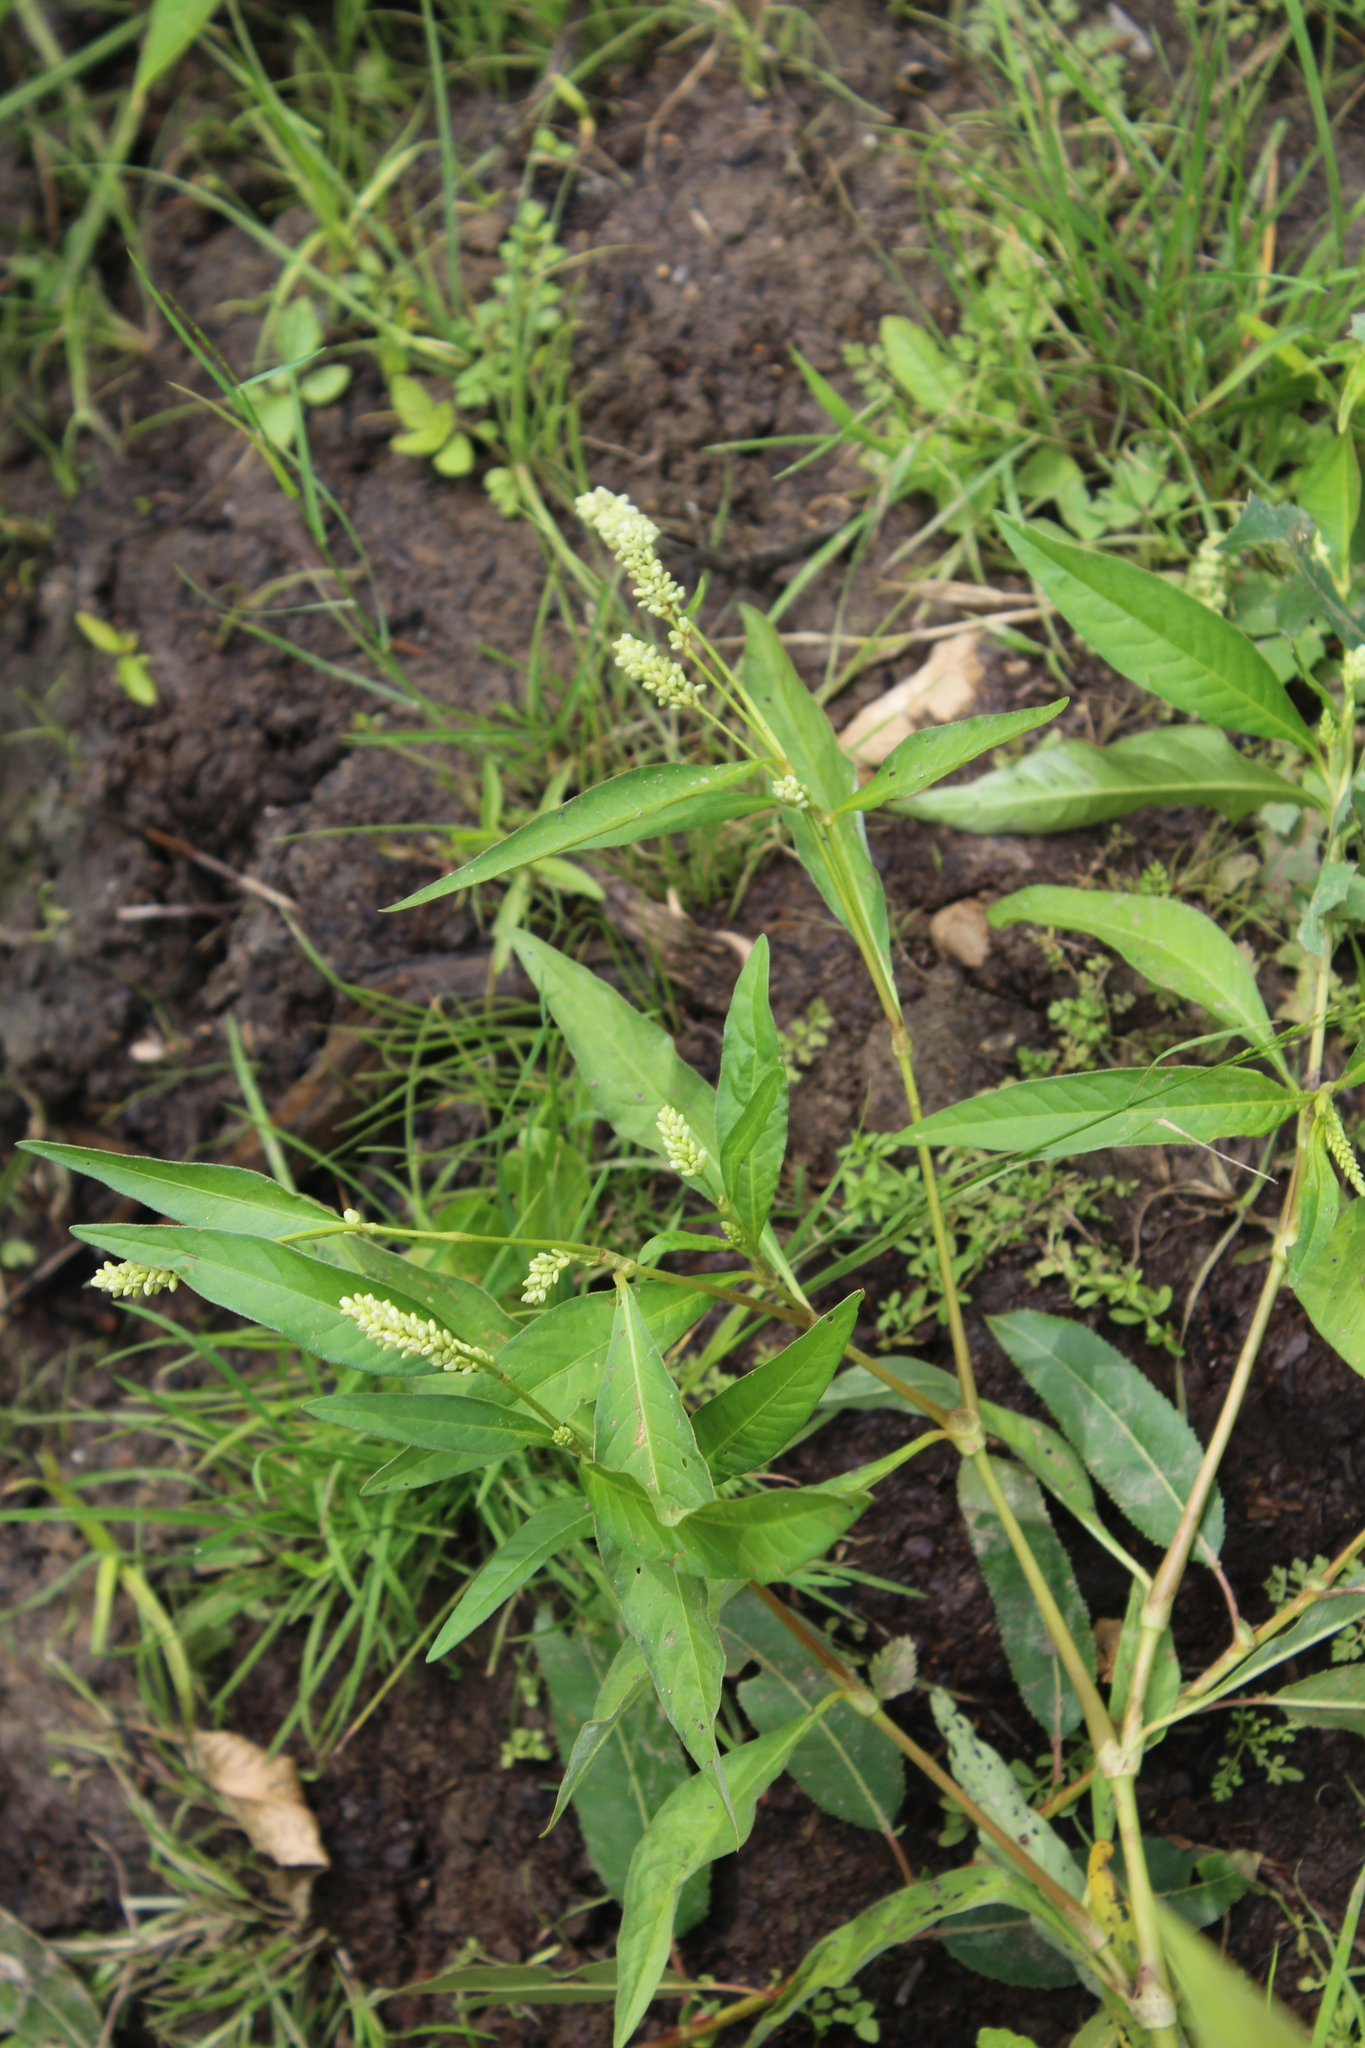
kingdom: Plantae
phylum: Tracheophyta
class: Magnoliopsida
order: Caryophyllales
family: Polygonaceae
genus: Persicaria
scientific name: Persicaria lapathifolia
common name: Curlytop knotweed
